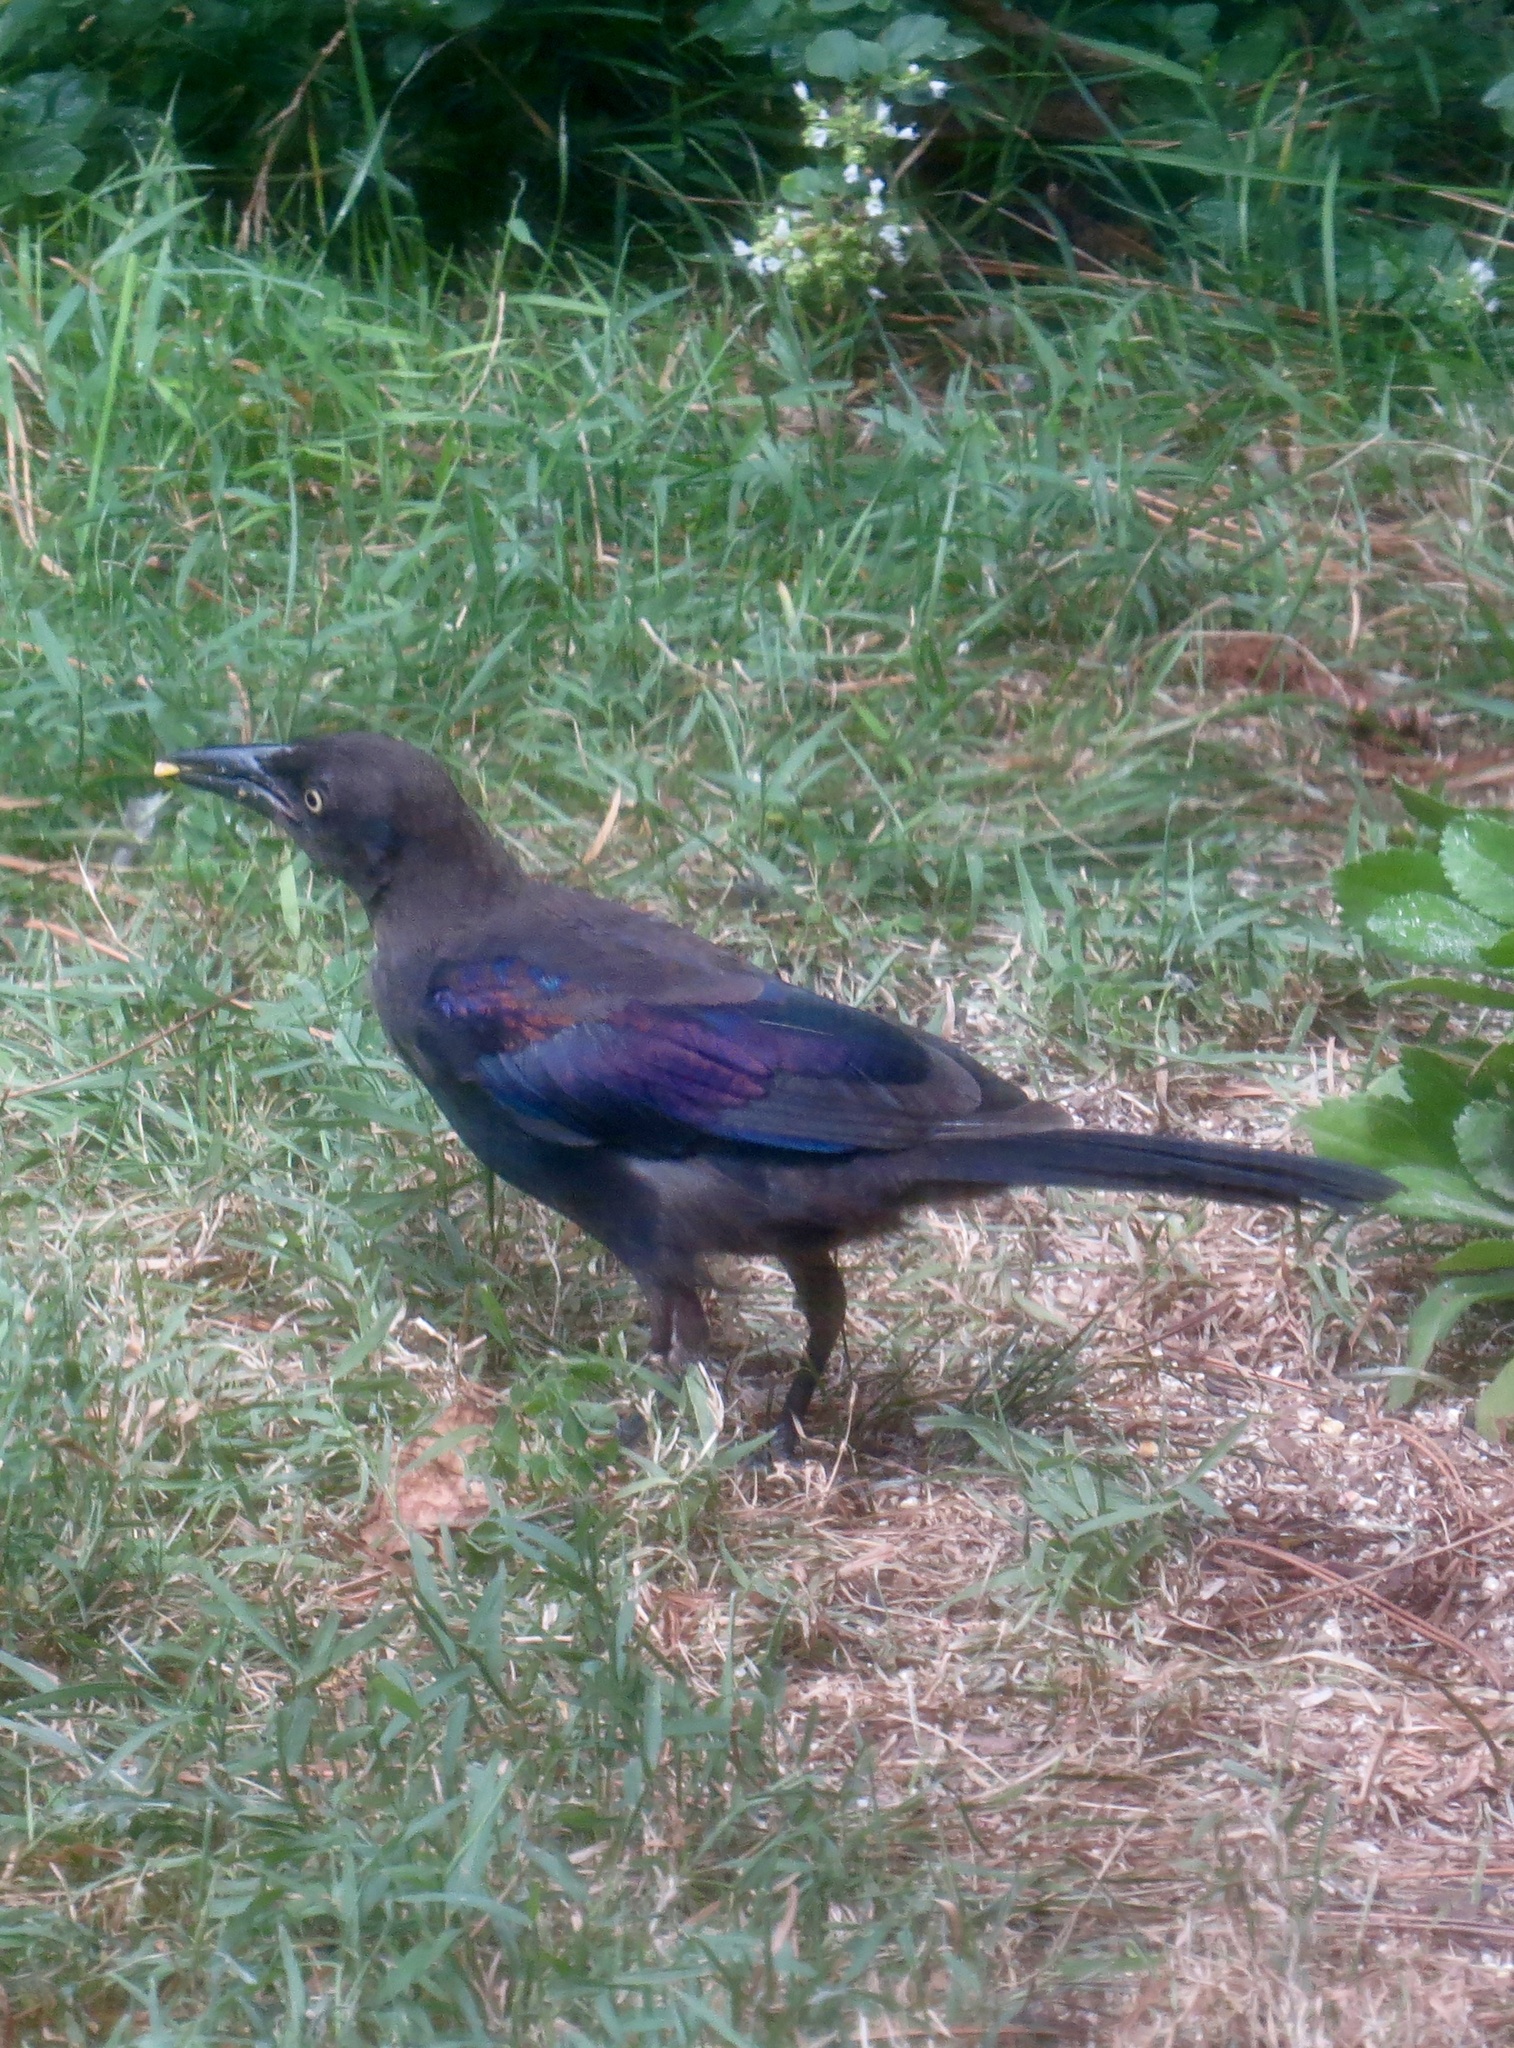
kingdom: Animalia
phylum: Chordata
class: Aves
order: Passeriformes
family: Icteridae
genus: Quiscalus
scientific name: Quiscalus quiscula
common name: Common grackle
